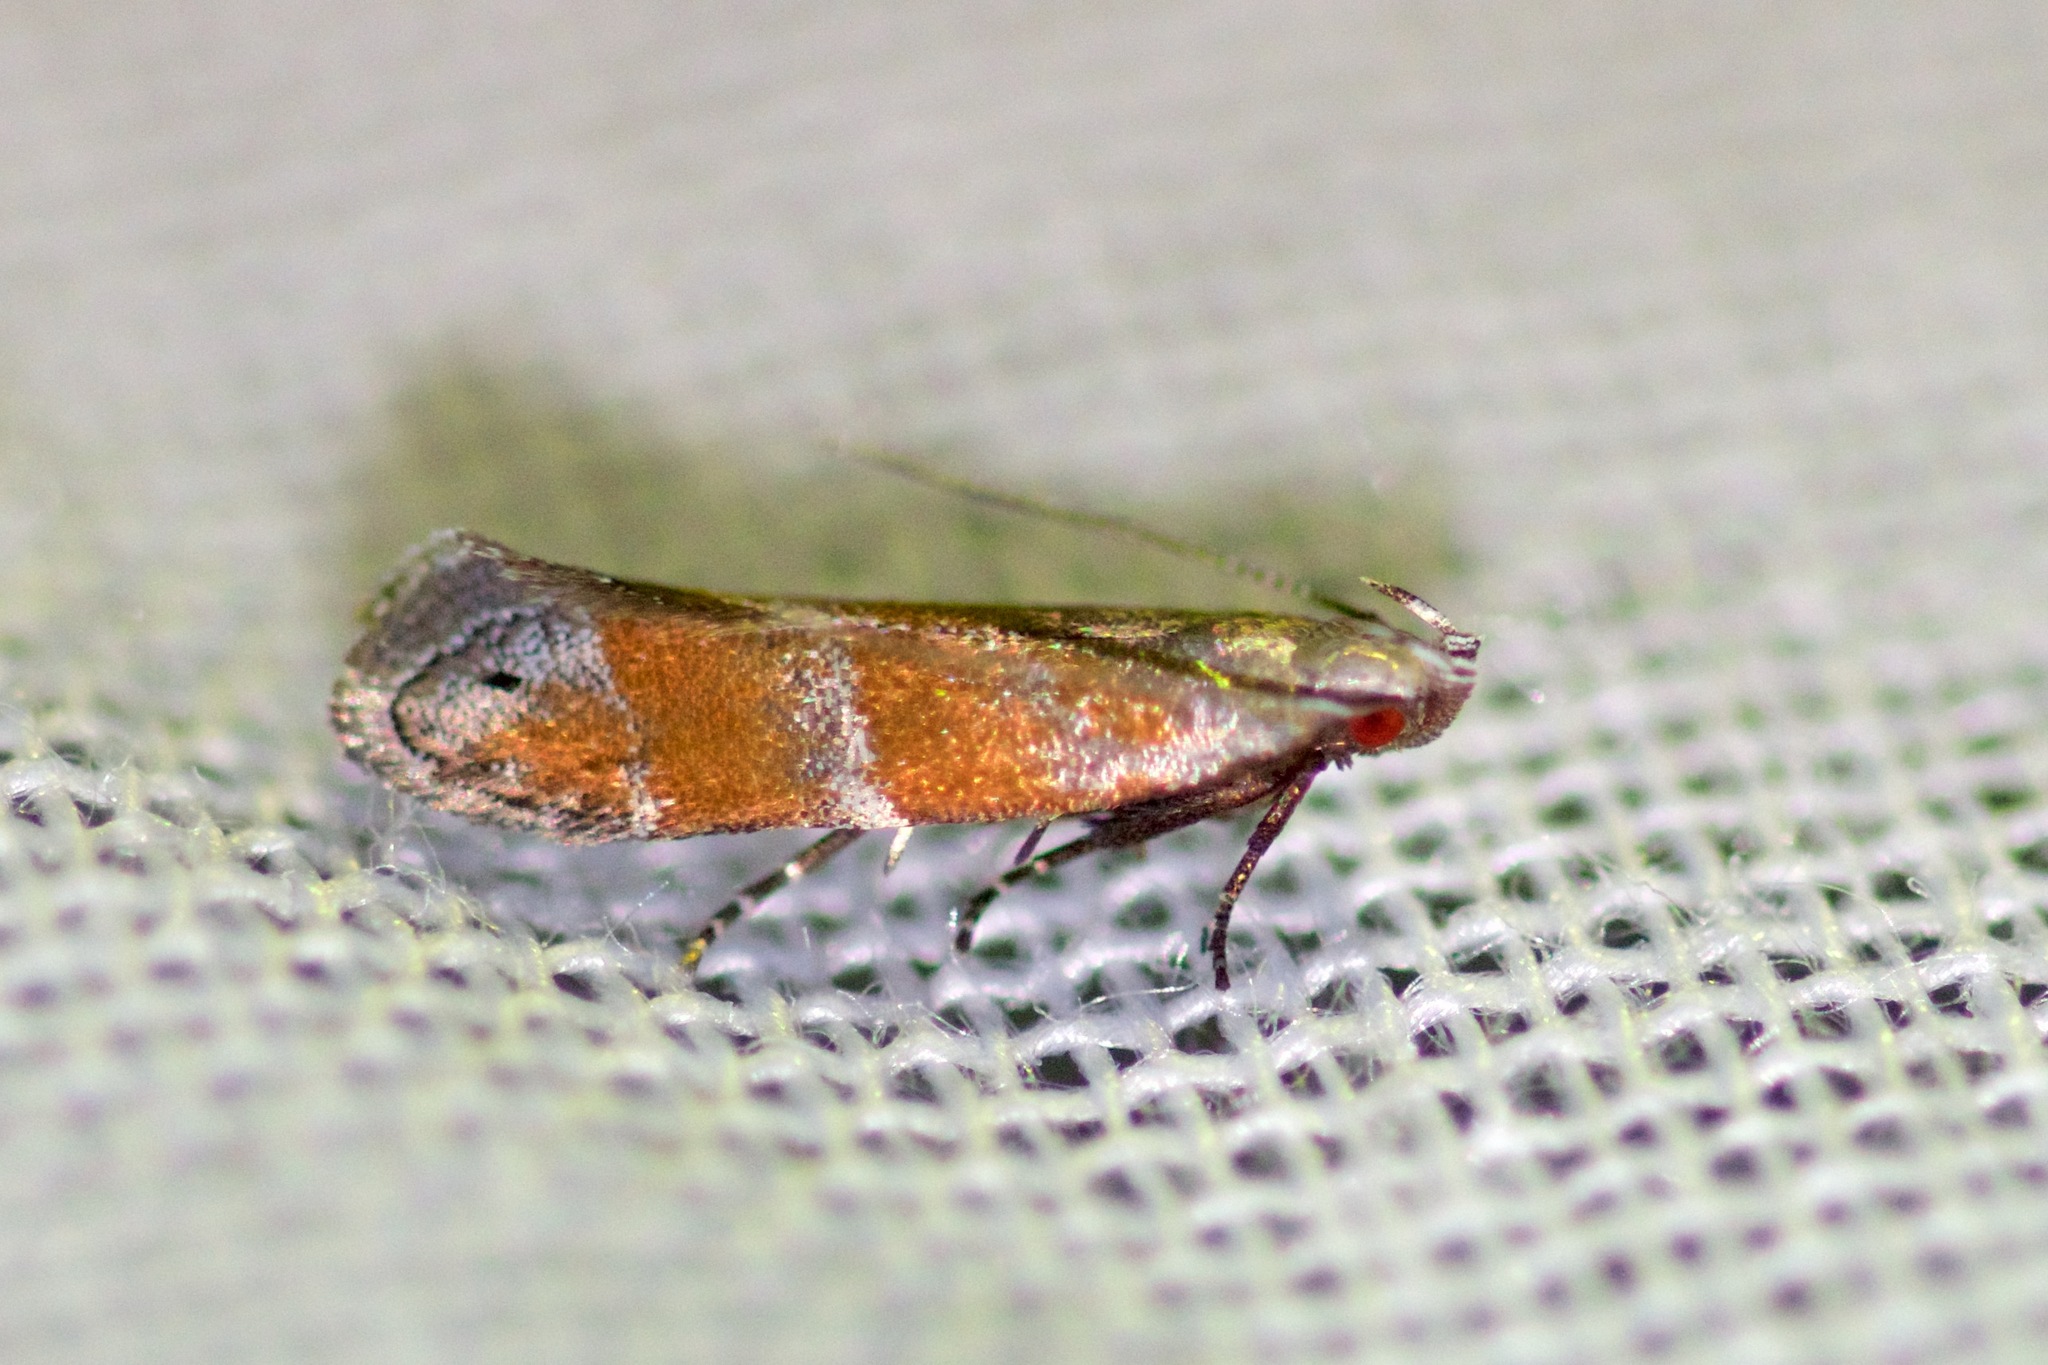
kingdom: Animalia
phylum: Arthropoda
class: Insecta
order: Lepidoptera
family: Gelechiidae
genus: Battaristis
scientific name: Battaristis vittella
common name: Orange stripe-backed moth
